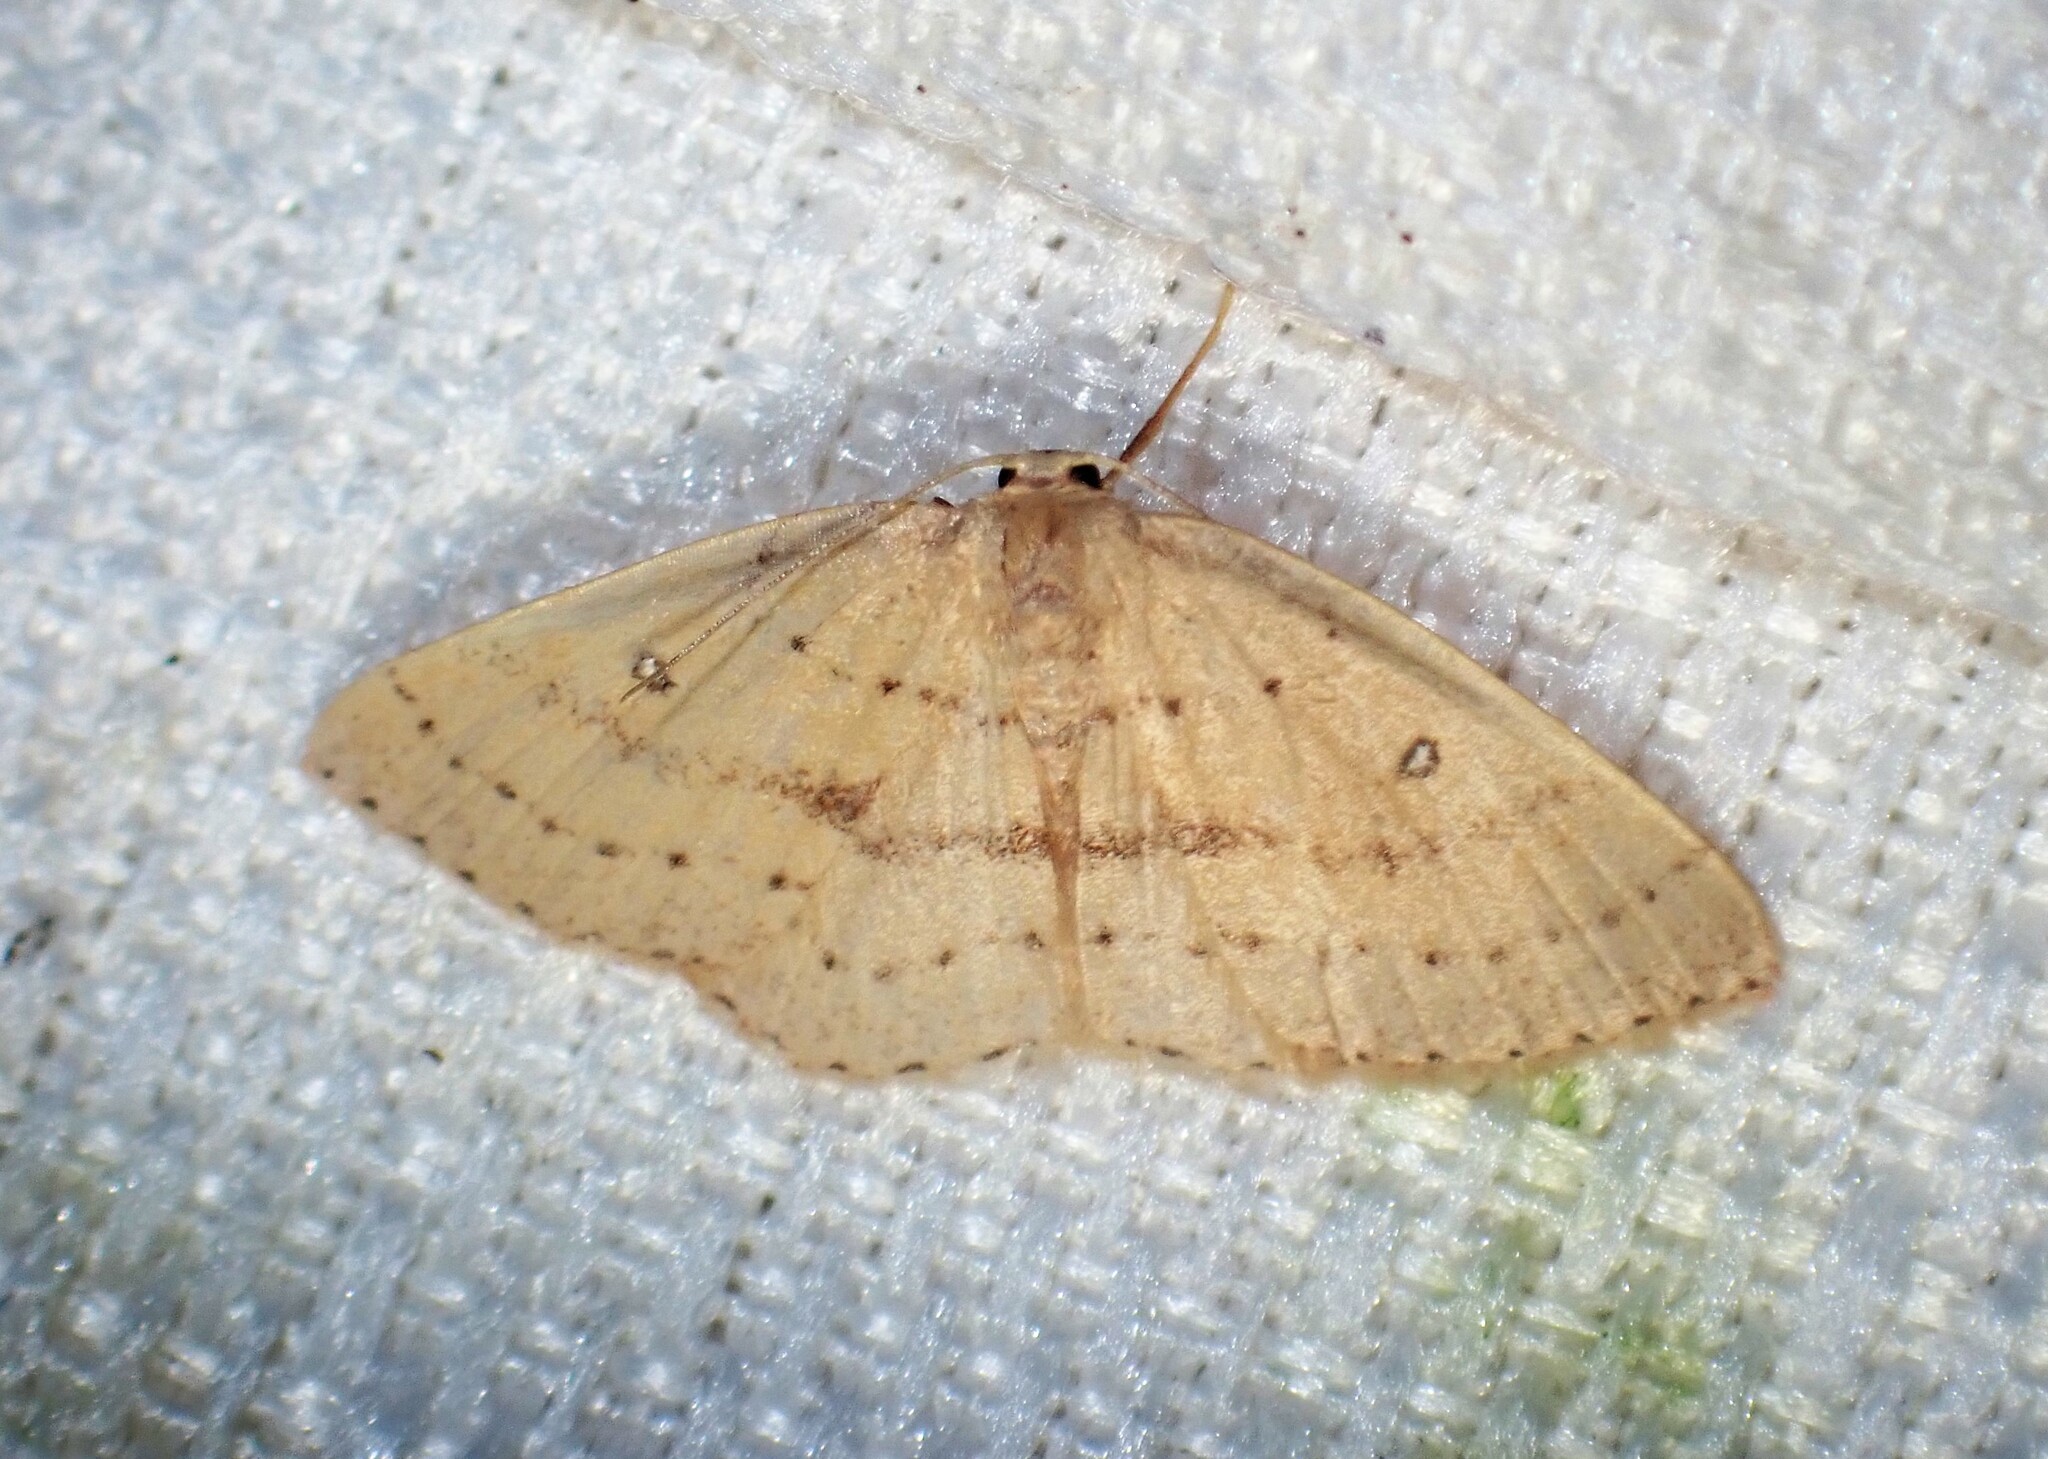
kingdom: Animalia
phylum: Arthropoda
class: Insecta
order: Lepidoptera
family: Geometridae
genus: Cyclophora
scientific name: Cyclophora azorensis
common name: Geometer moth
